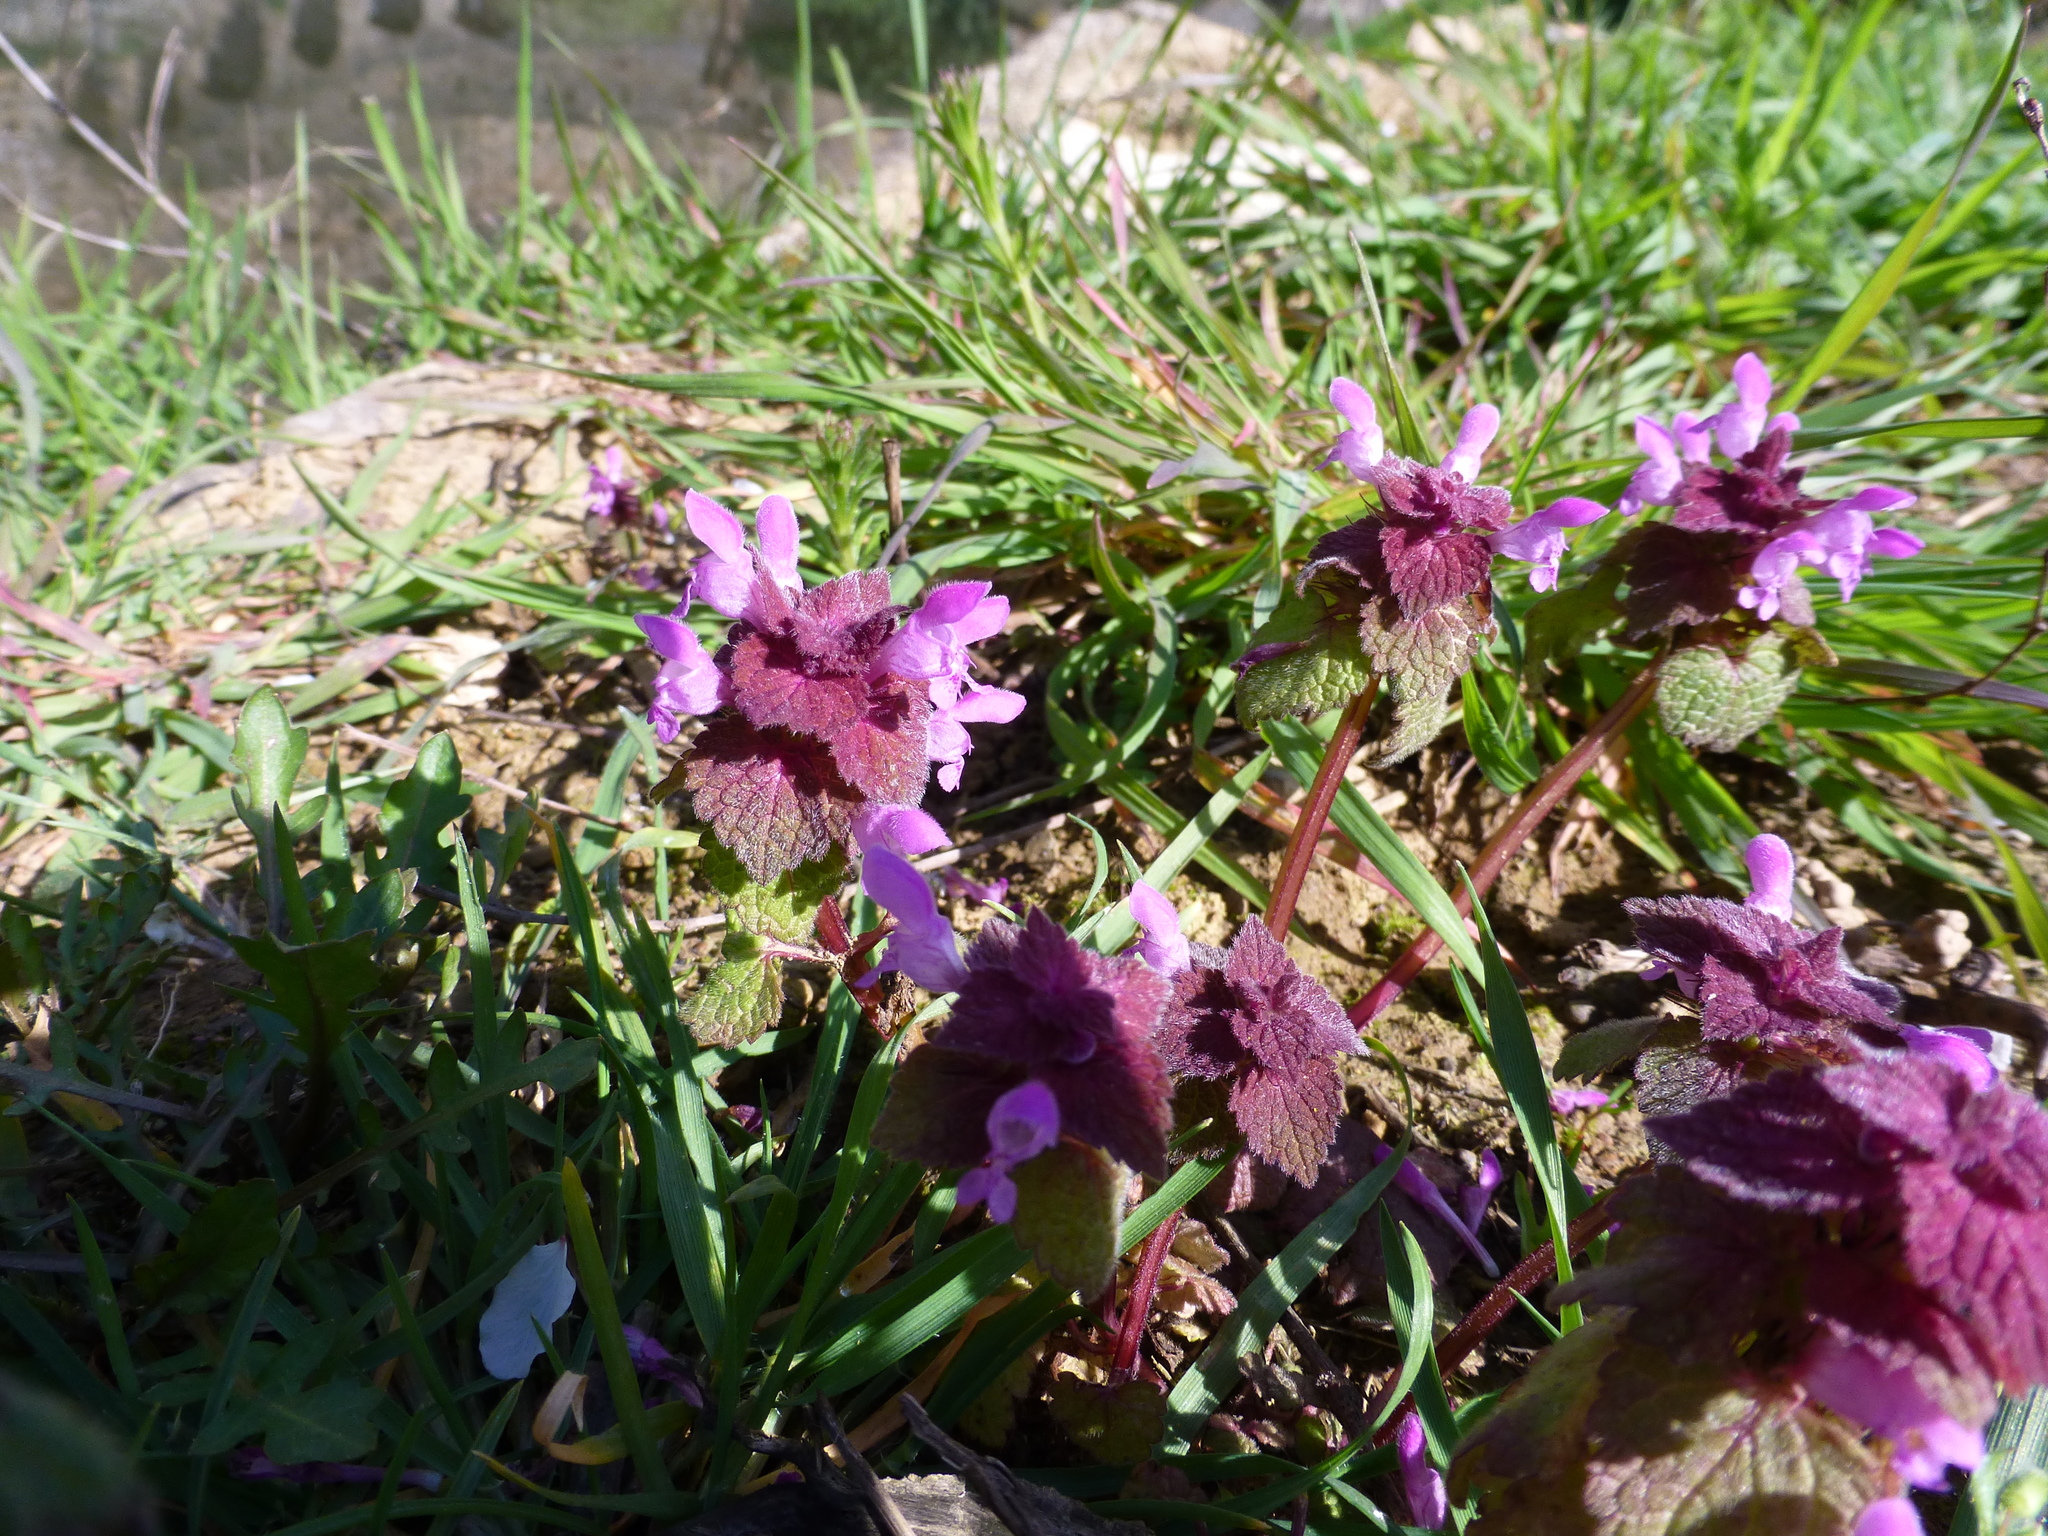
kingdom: Plantae
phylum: Tracheophyta
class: Magnoliopsida
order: Lamiales
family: Lamiaceae
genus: Lamium
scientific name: Lamium purpureum
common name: Red dead-nettle
